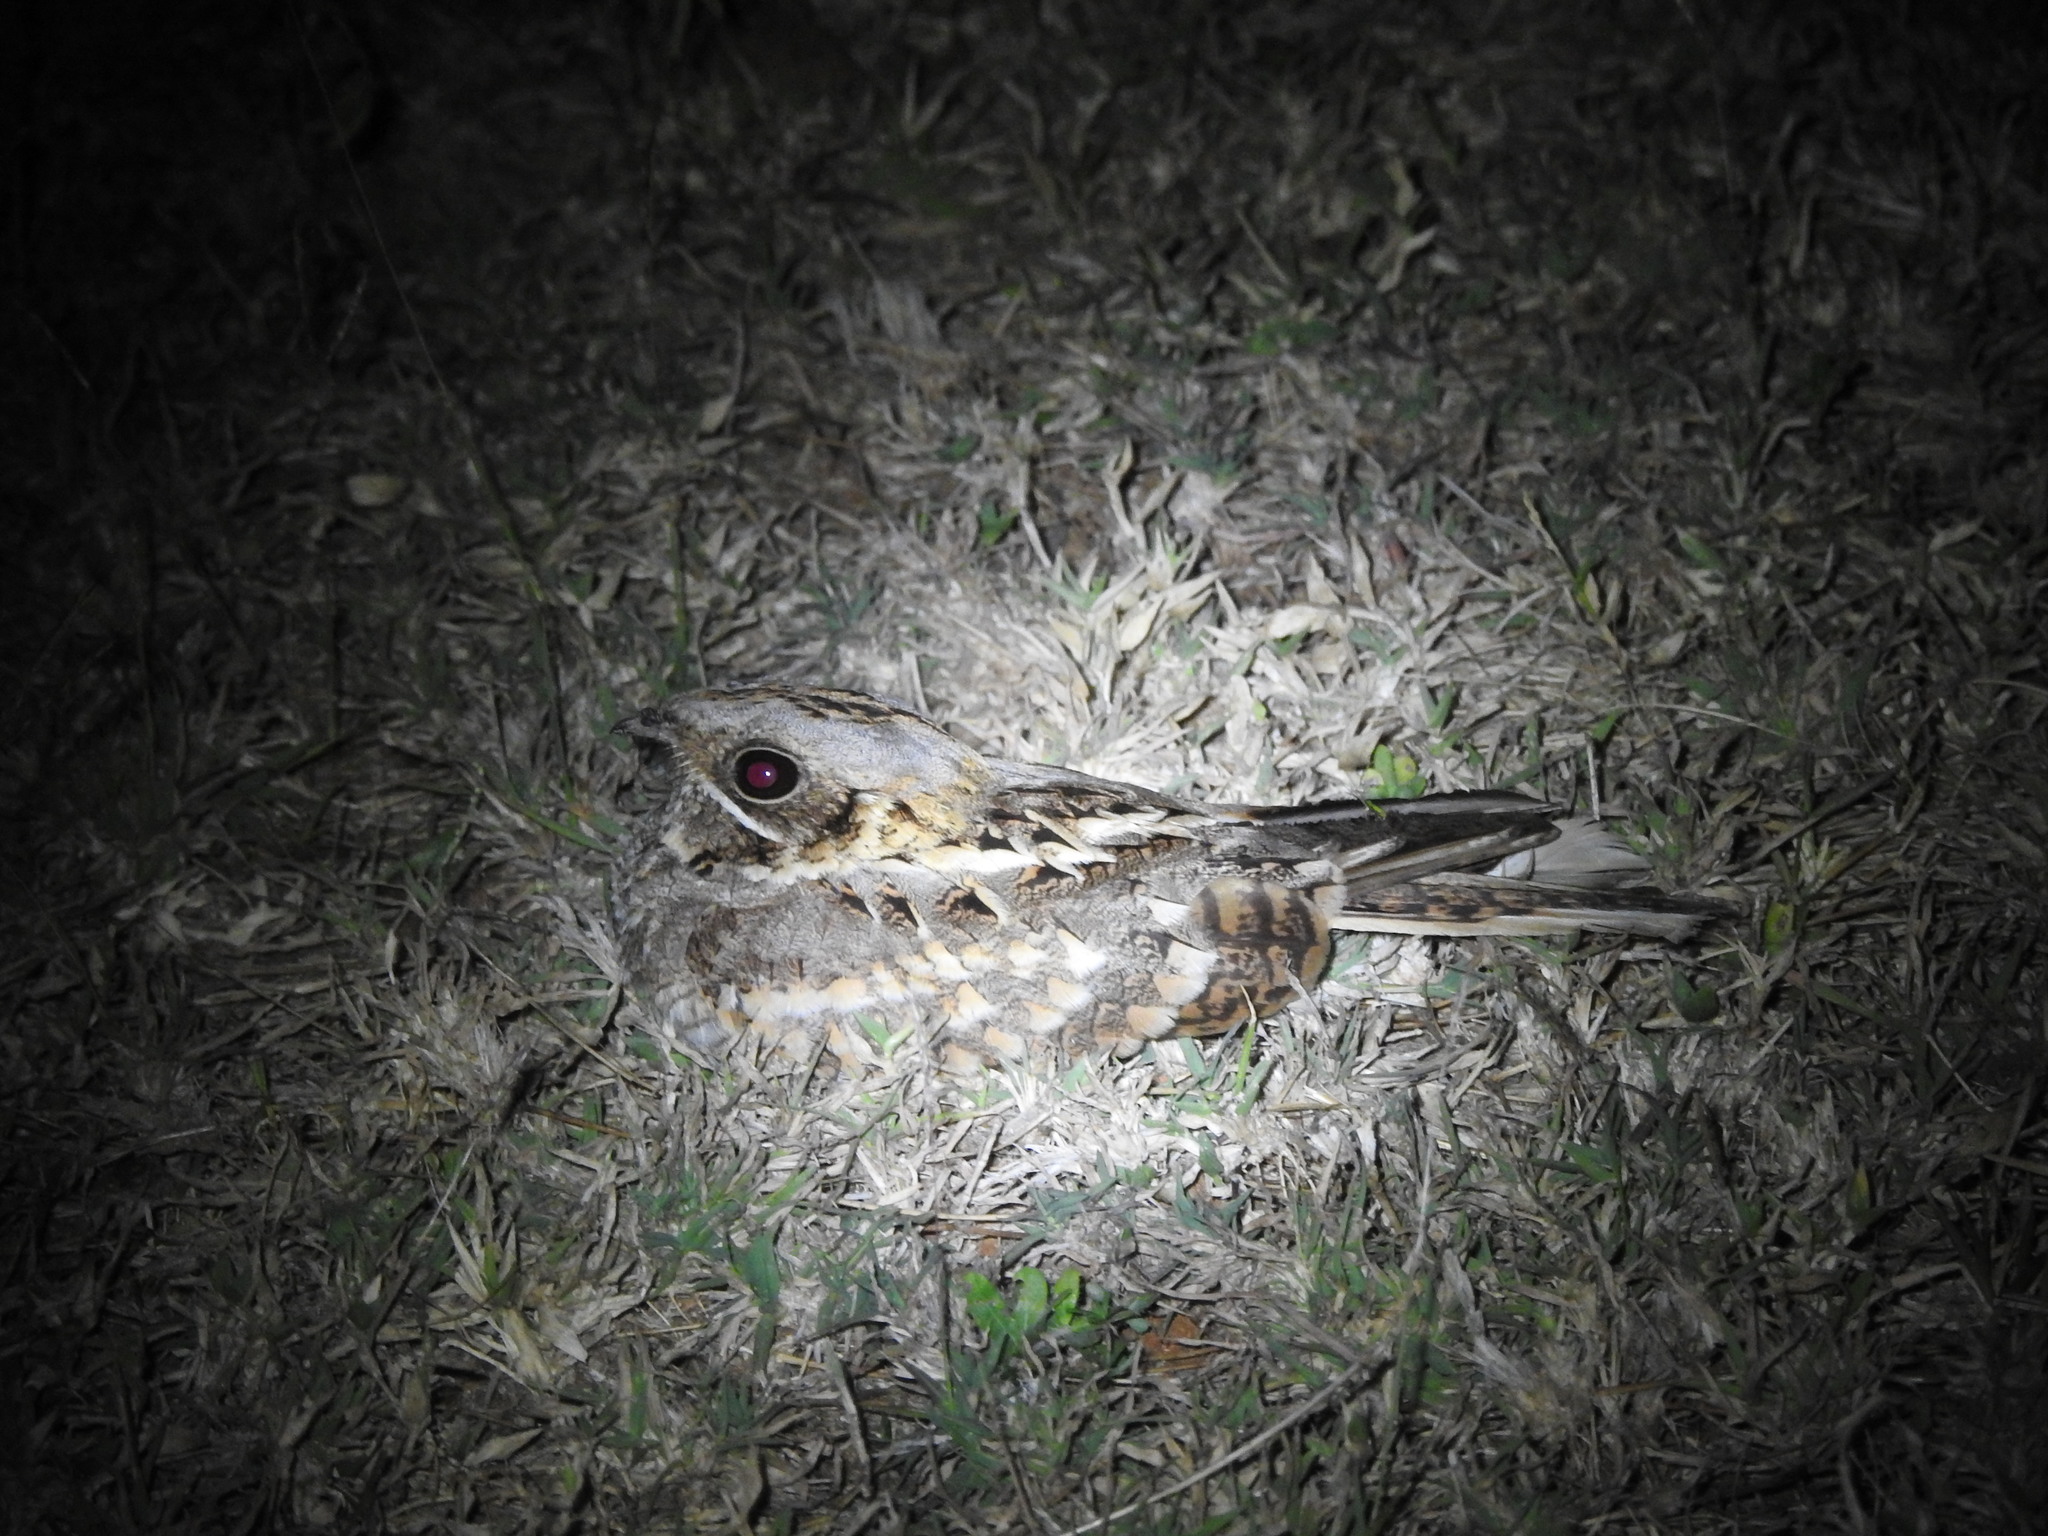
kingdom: Animalia
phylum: Chordata
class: Aves
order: Caprimulgiformes
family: Caprimulgidae
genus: Caprimulgus
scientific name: Caprimulgus asiaticus
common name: Indian nightjar
